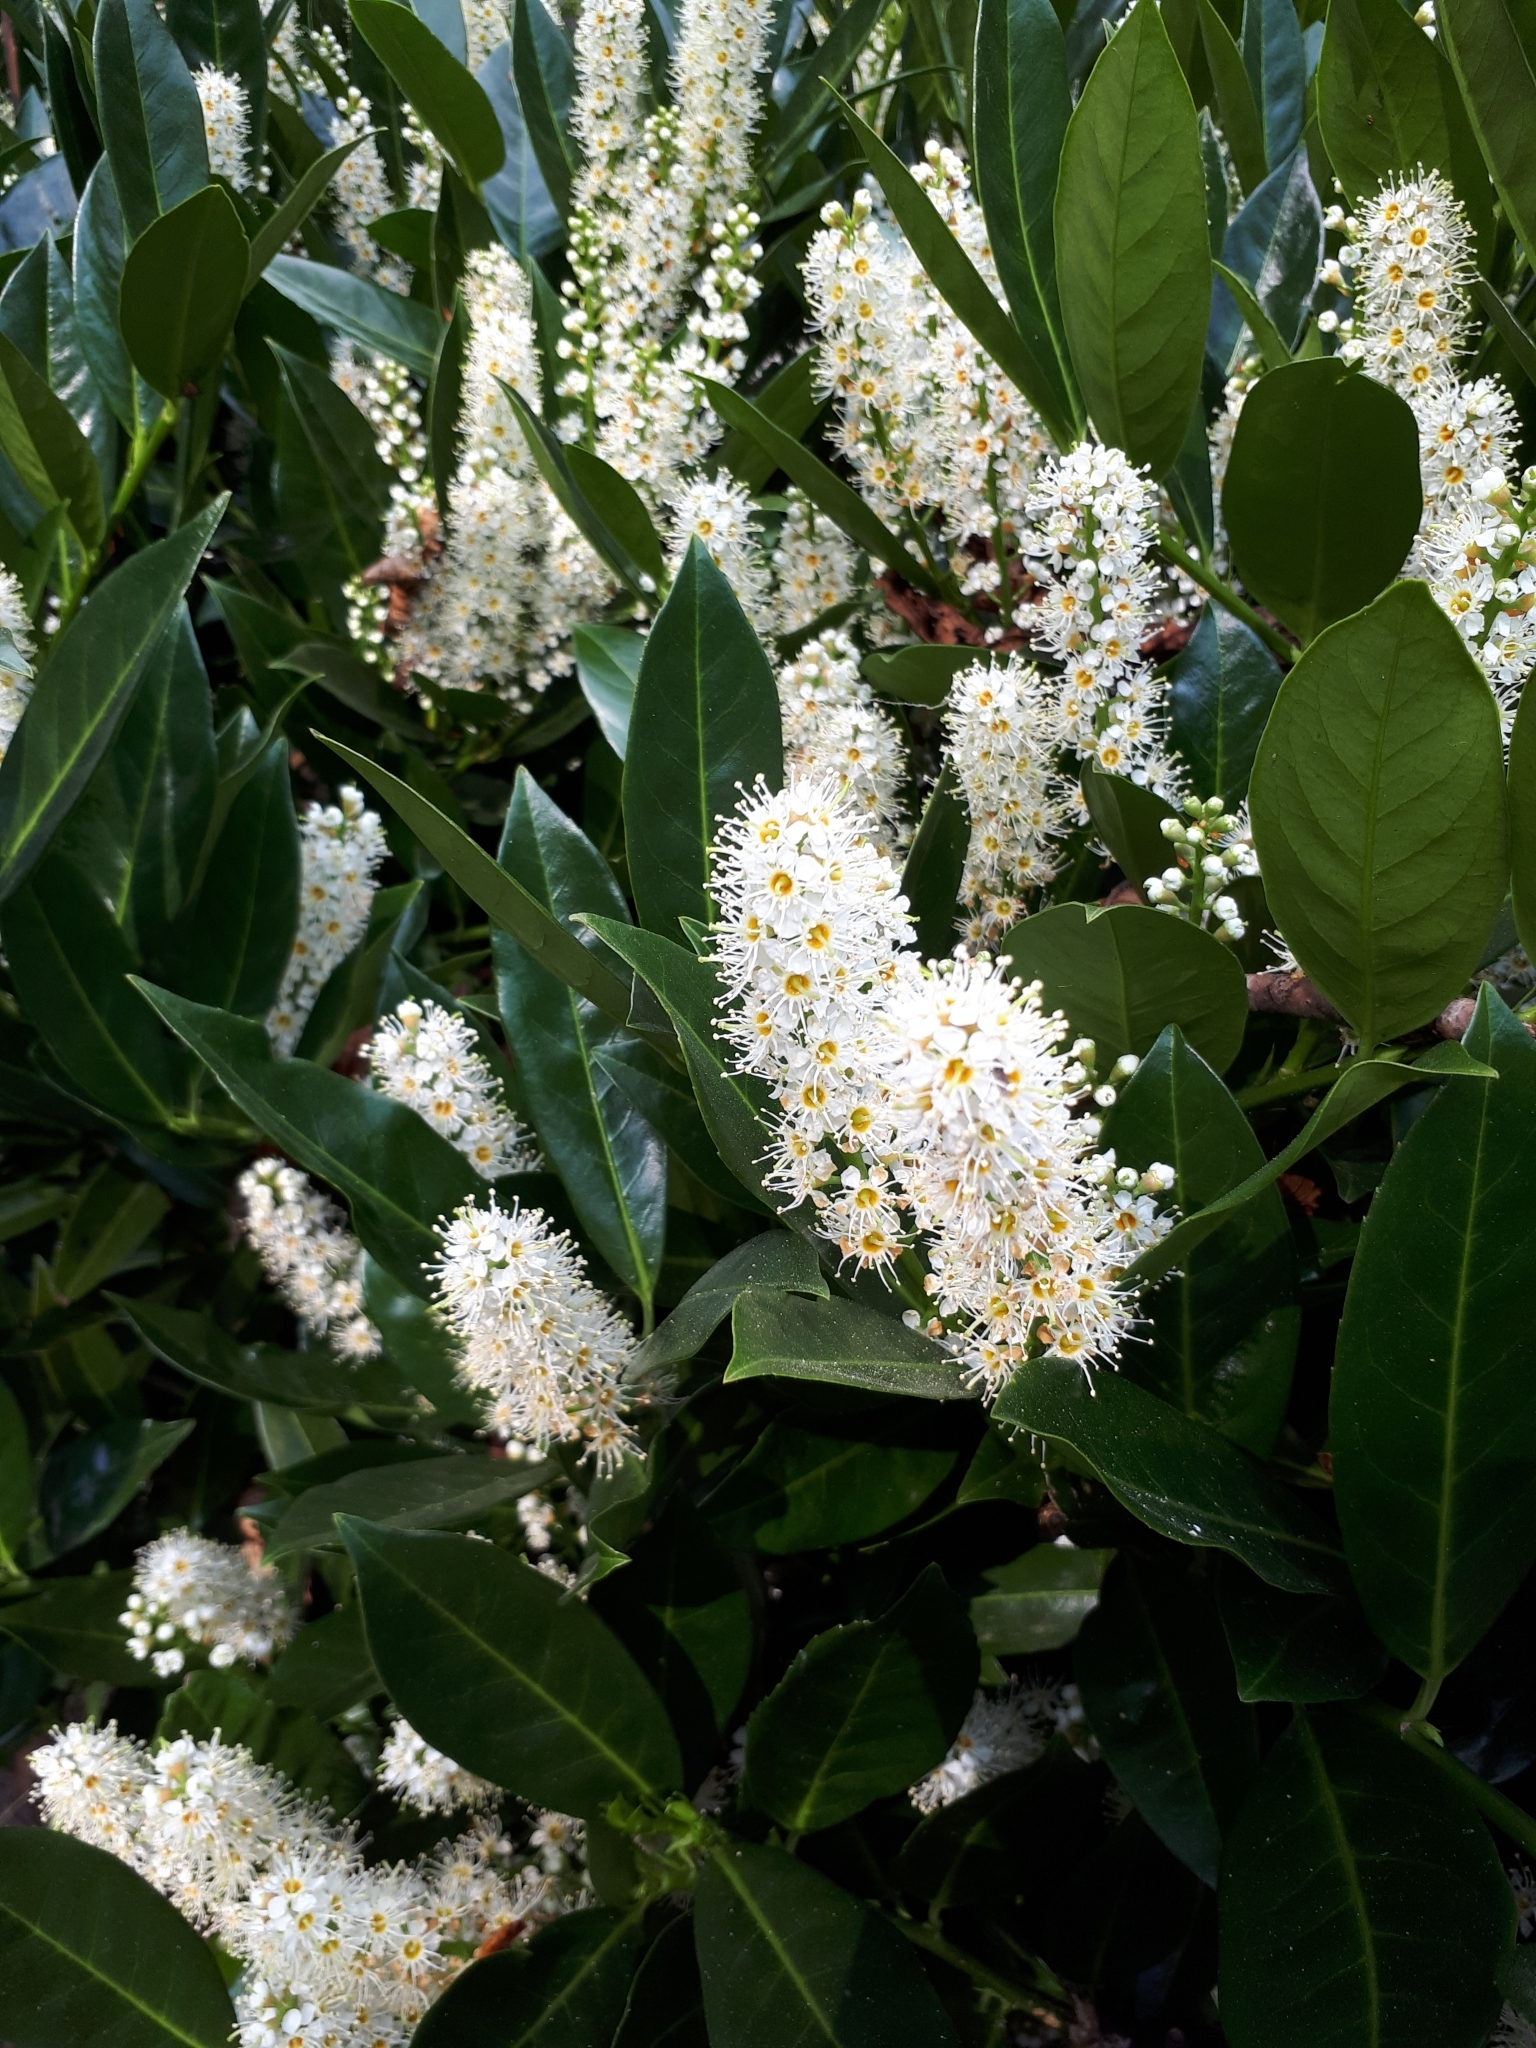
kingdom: Plantae
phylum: Tracheophyta
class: Magnoliopsida
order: Rosales
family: Rosaceae
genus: Prunus
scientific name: Prunus laurocerasus
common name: Cherry laurel
